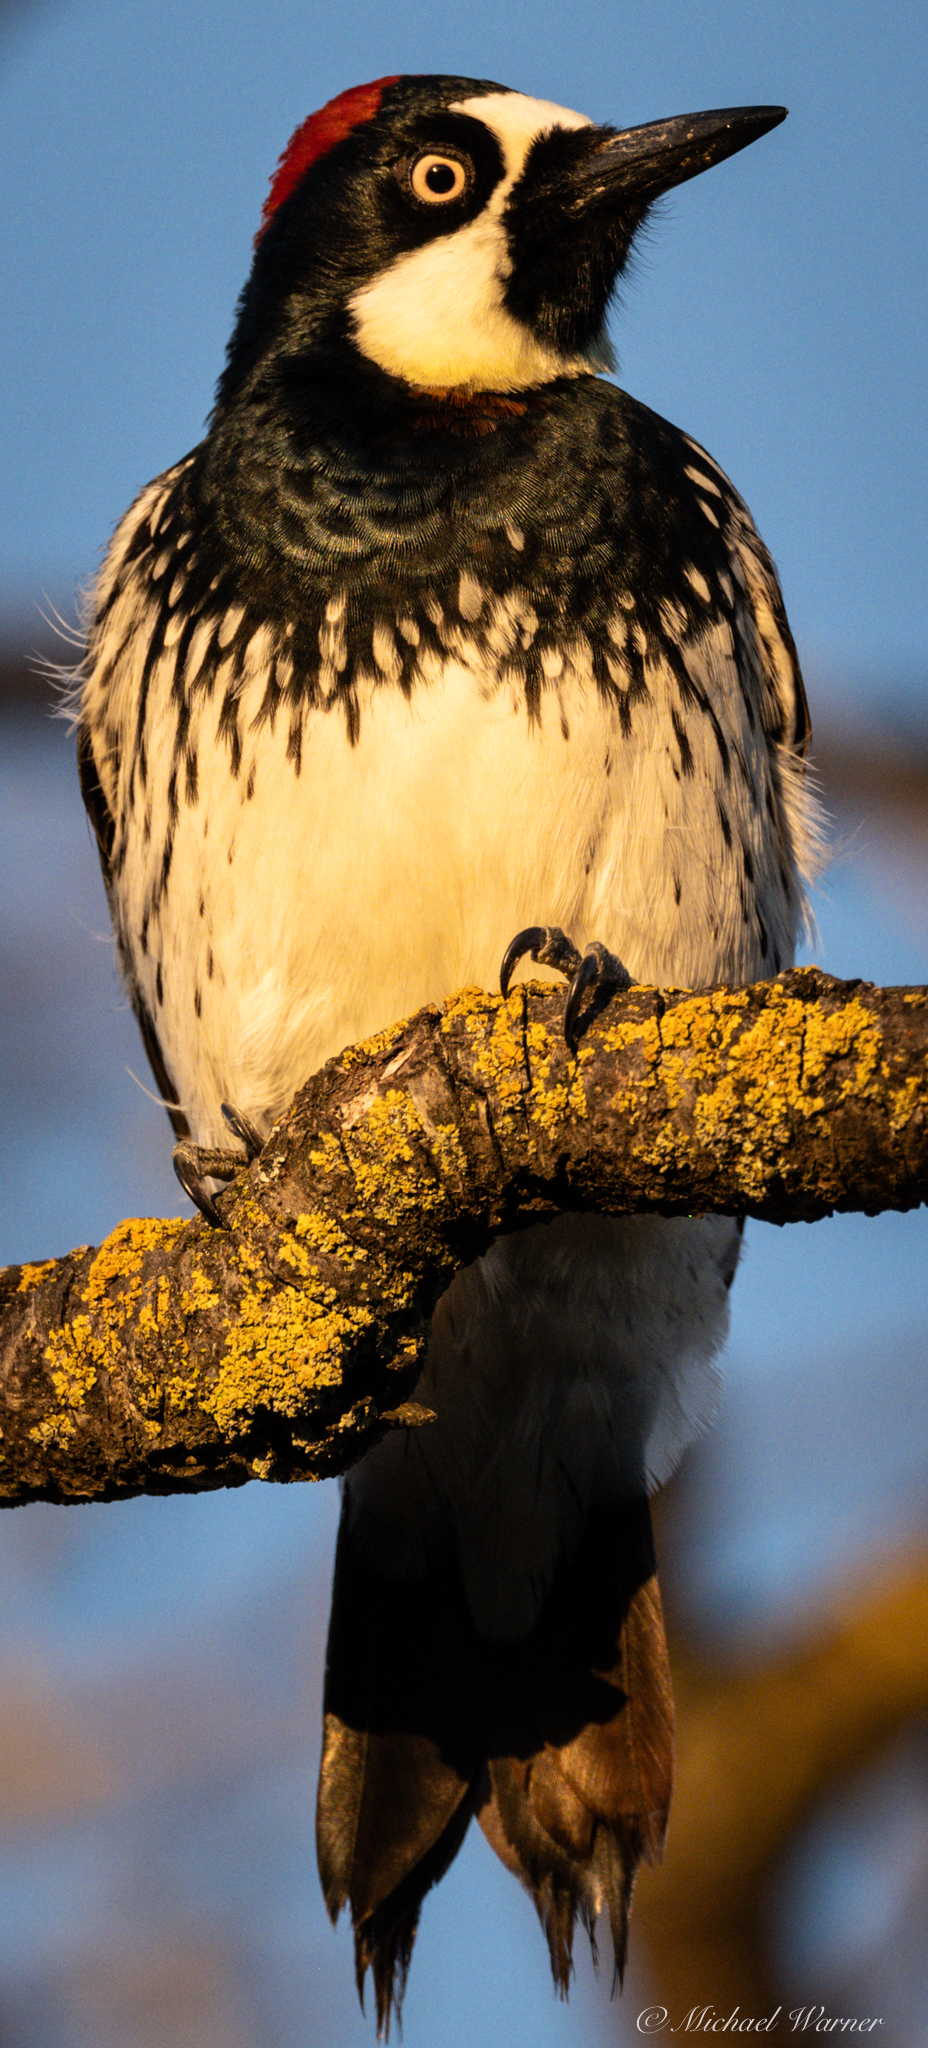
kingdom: Animalia
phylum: Chordata
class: Aves
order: Piciformes
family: Picidae
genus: Melanerpes
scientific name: Melanerpes formicivorus
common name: Acorn woodpecker
